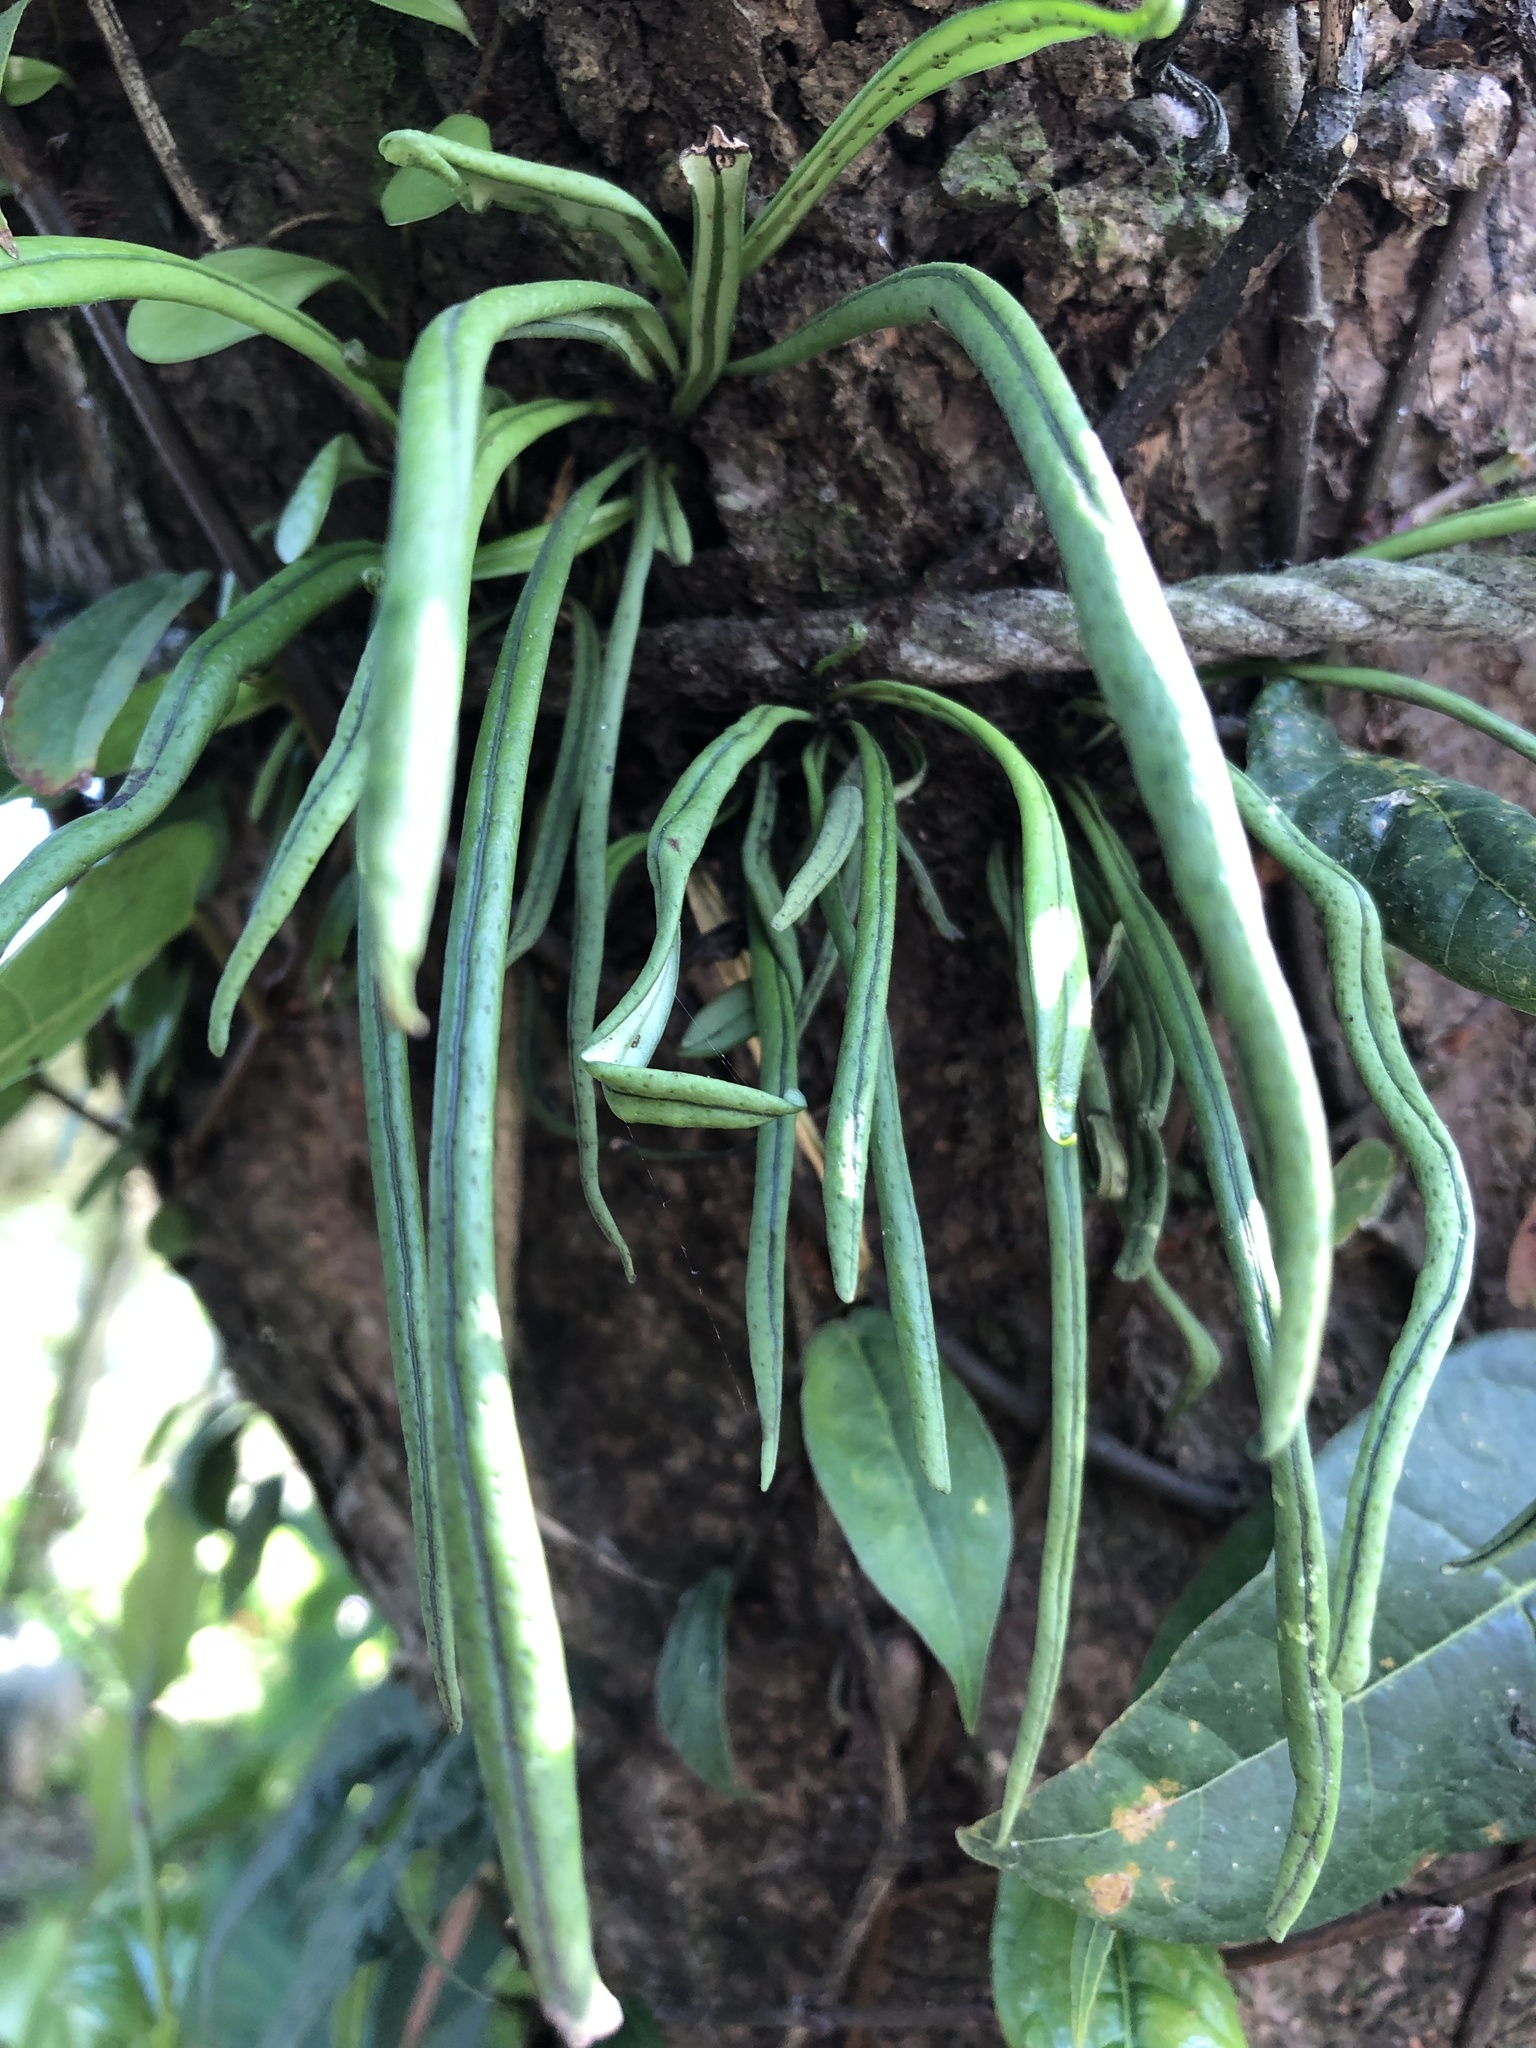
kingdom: Plantae
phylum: Tracheophyta
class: Polypodiopsida
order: Polypodiales
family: Polypodiaceae
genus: Lepisorus
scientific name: Lepisorus thunbergianus
